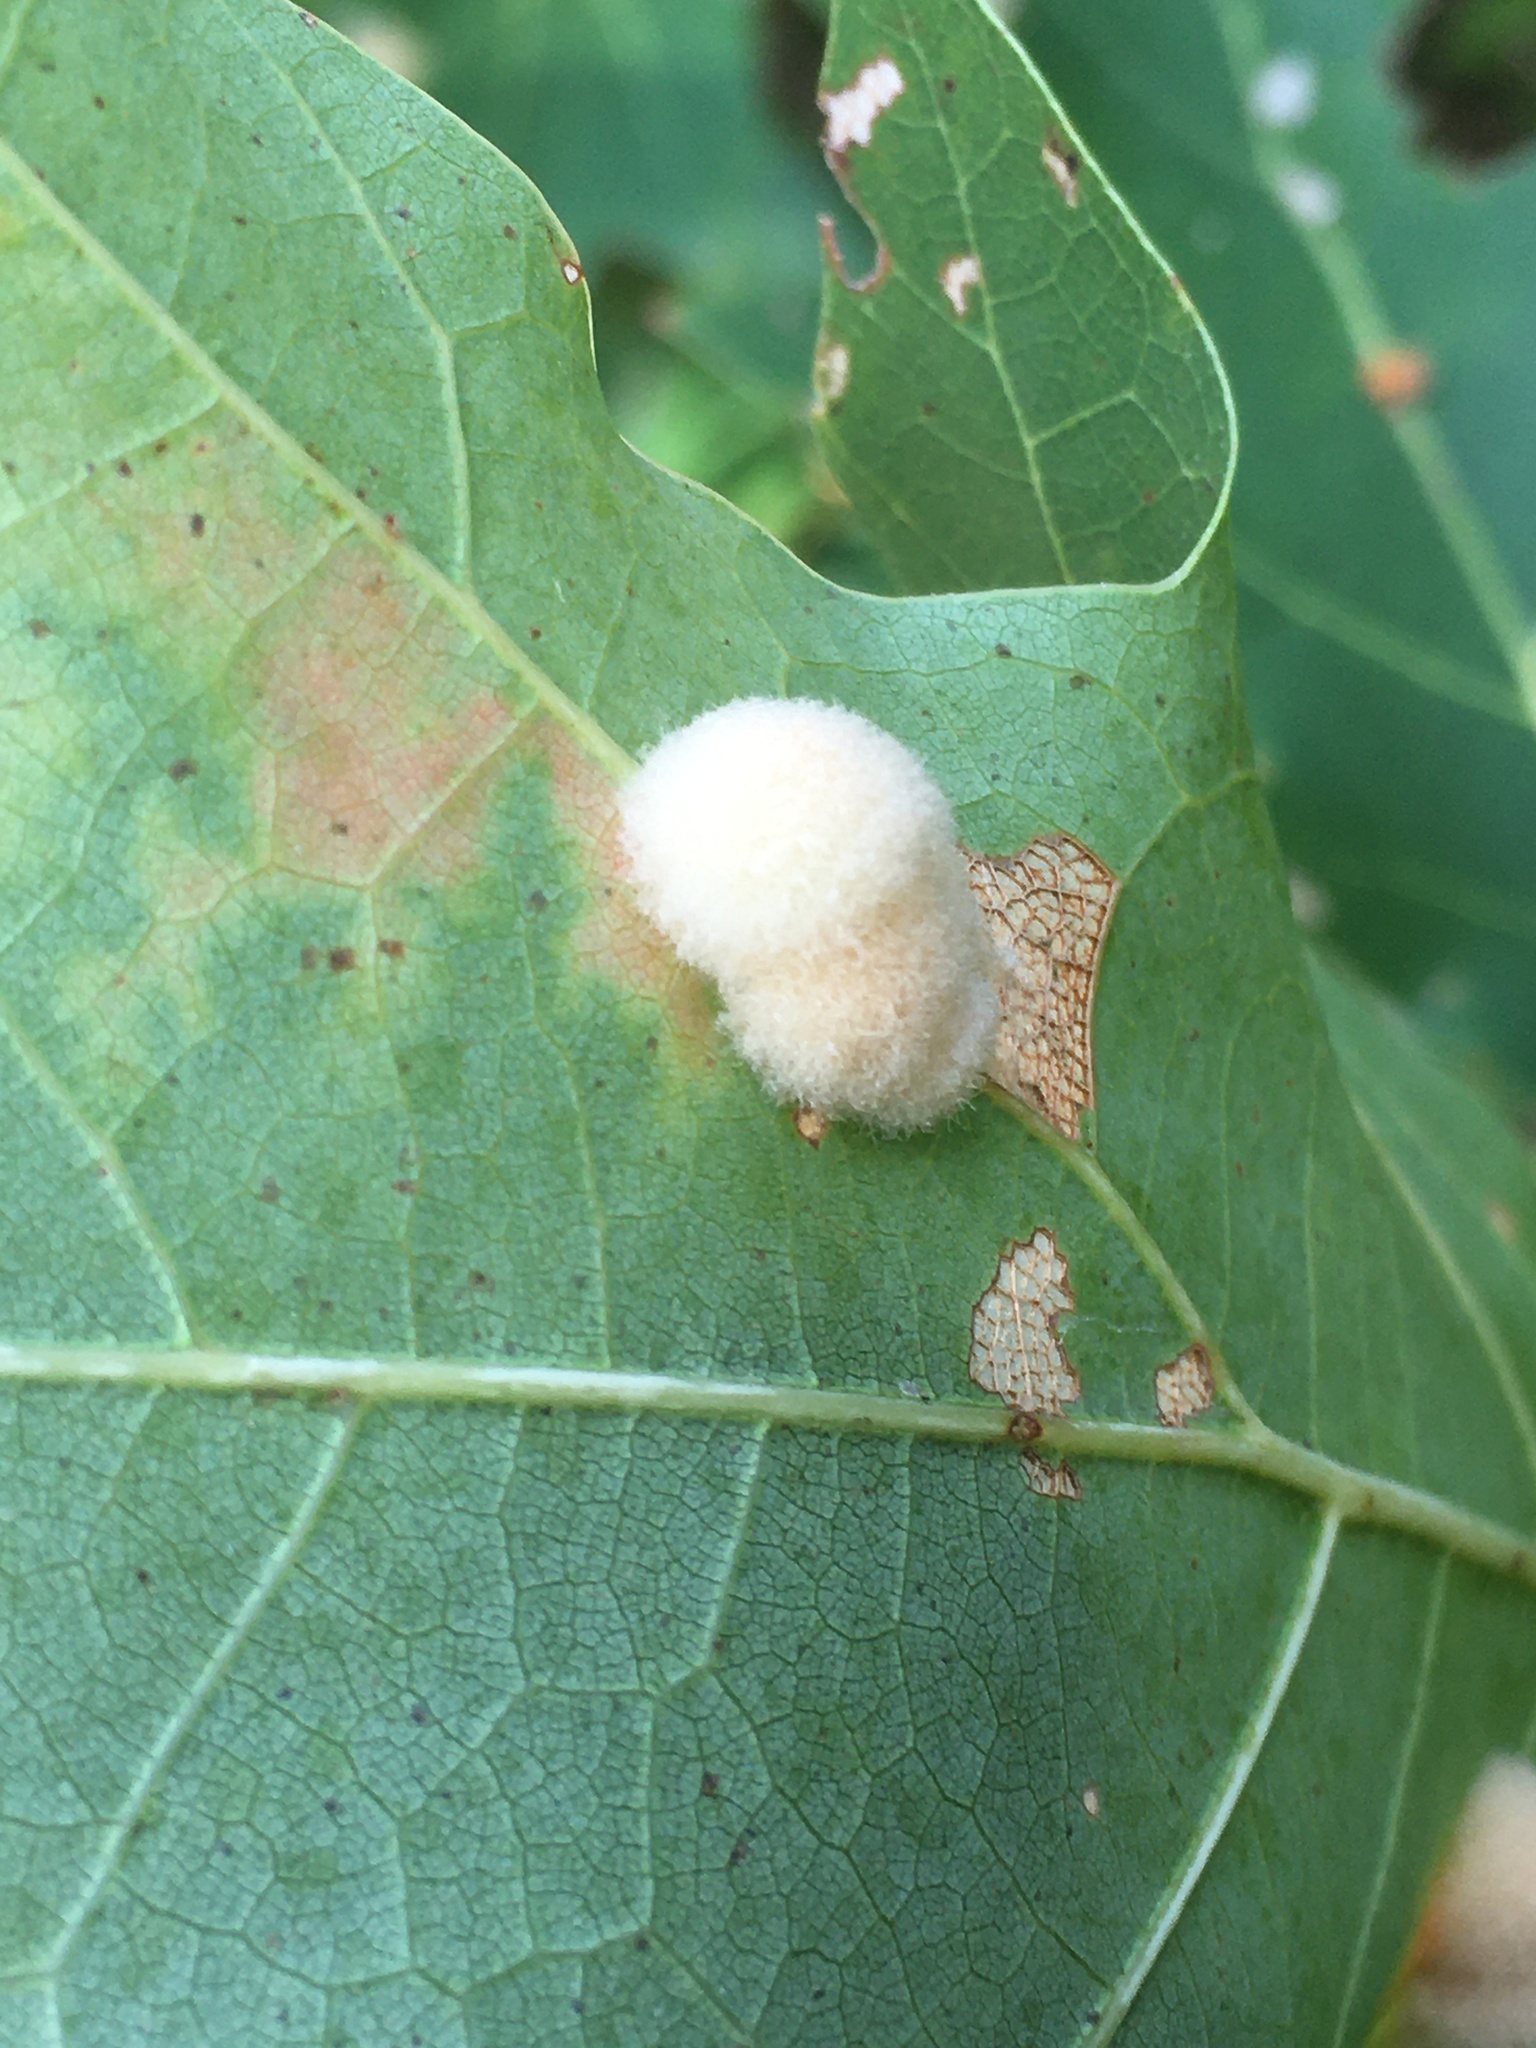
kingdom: Animalia
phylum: Arthropoda
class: Insecta
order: Hymenoptera
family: Cynipidae
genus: Callirhytis
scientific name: Callirhytis
